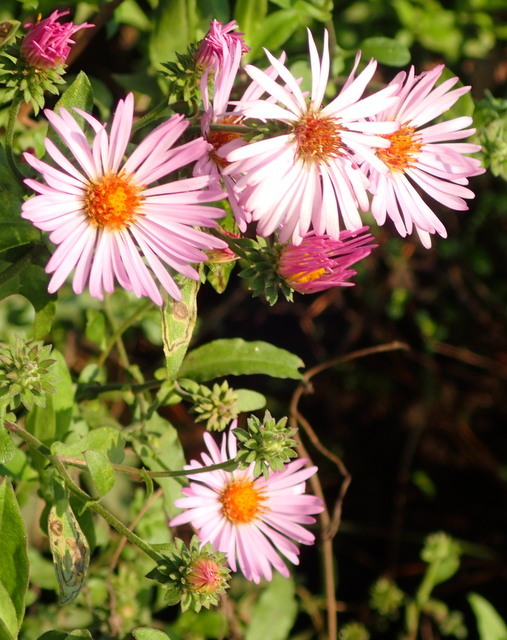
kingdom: Plantae
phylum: Tracheophyta
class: Magnoliopsida
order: Asterales
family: Asteraceae
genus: Ampelaster
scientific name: Ampelaster carolinianus
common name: Climbing aster
